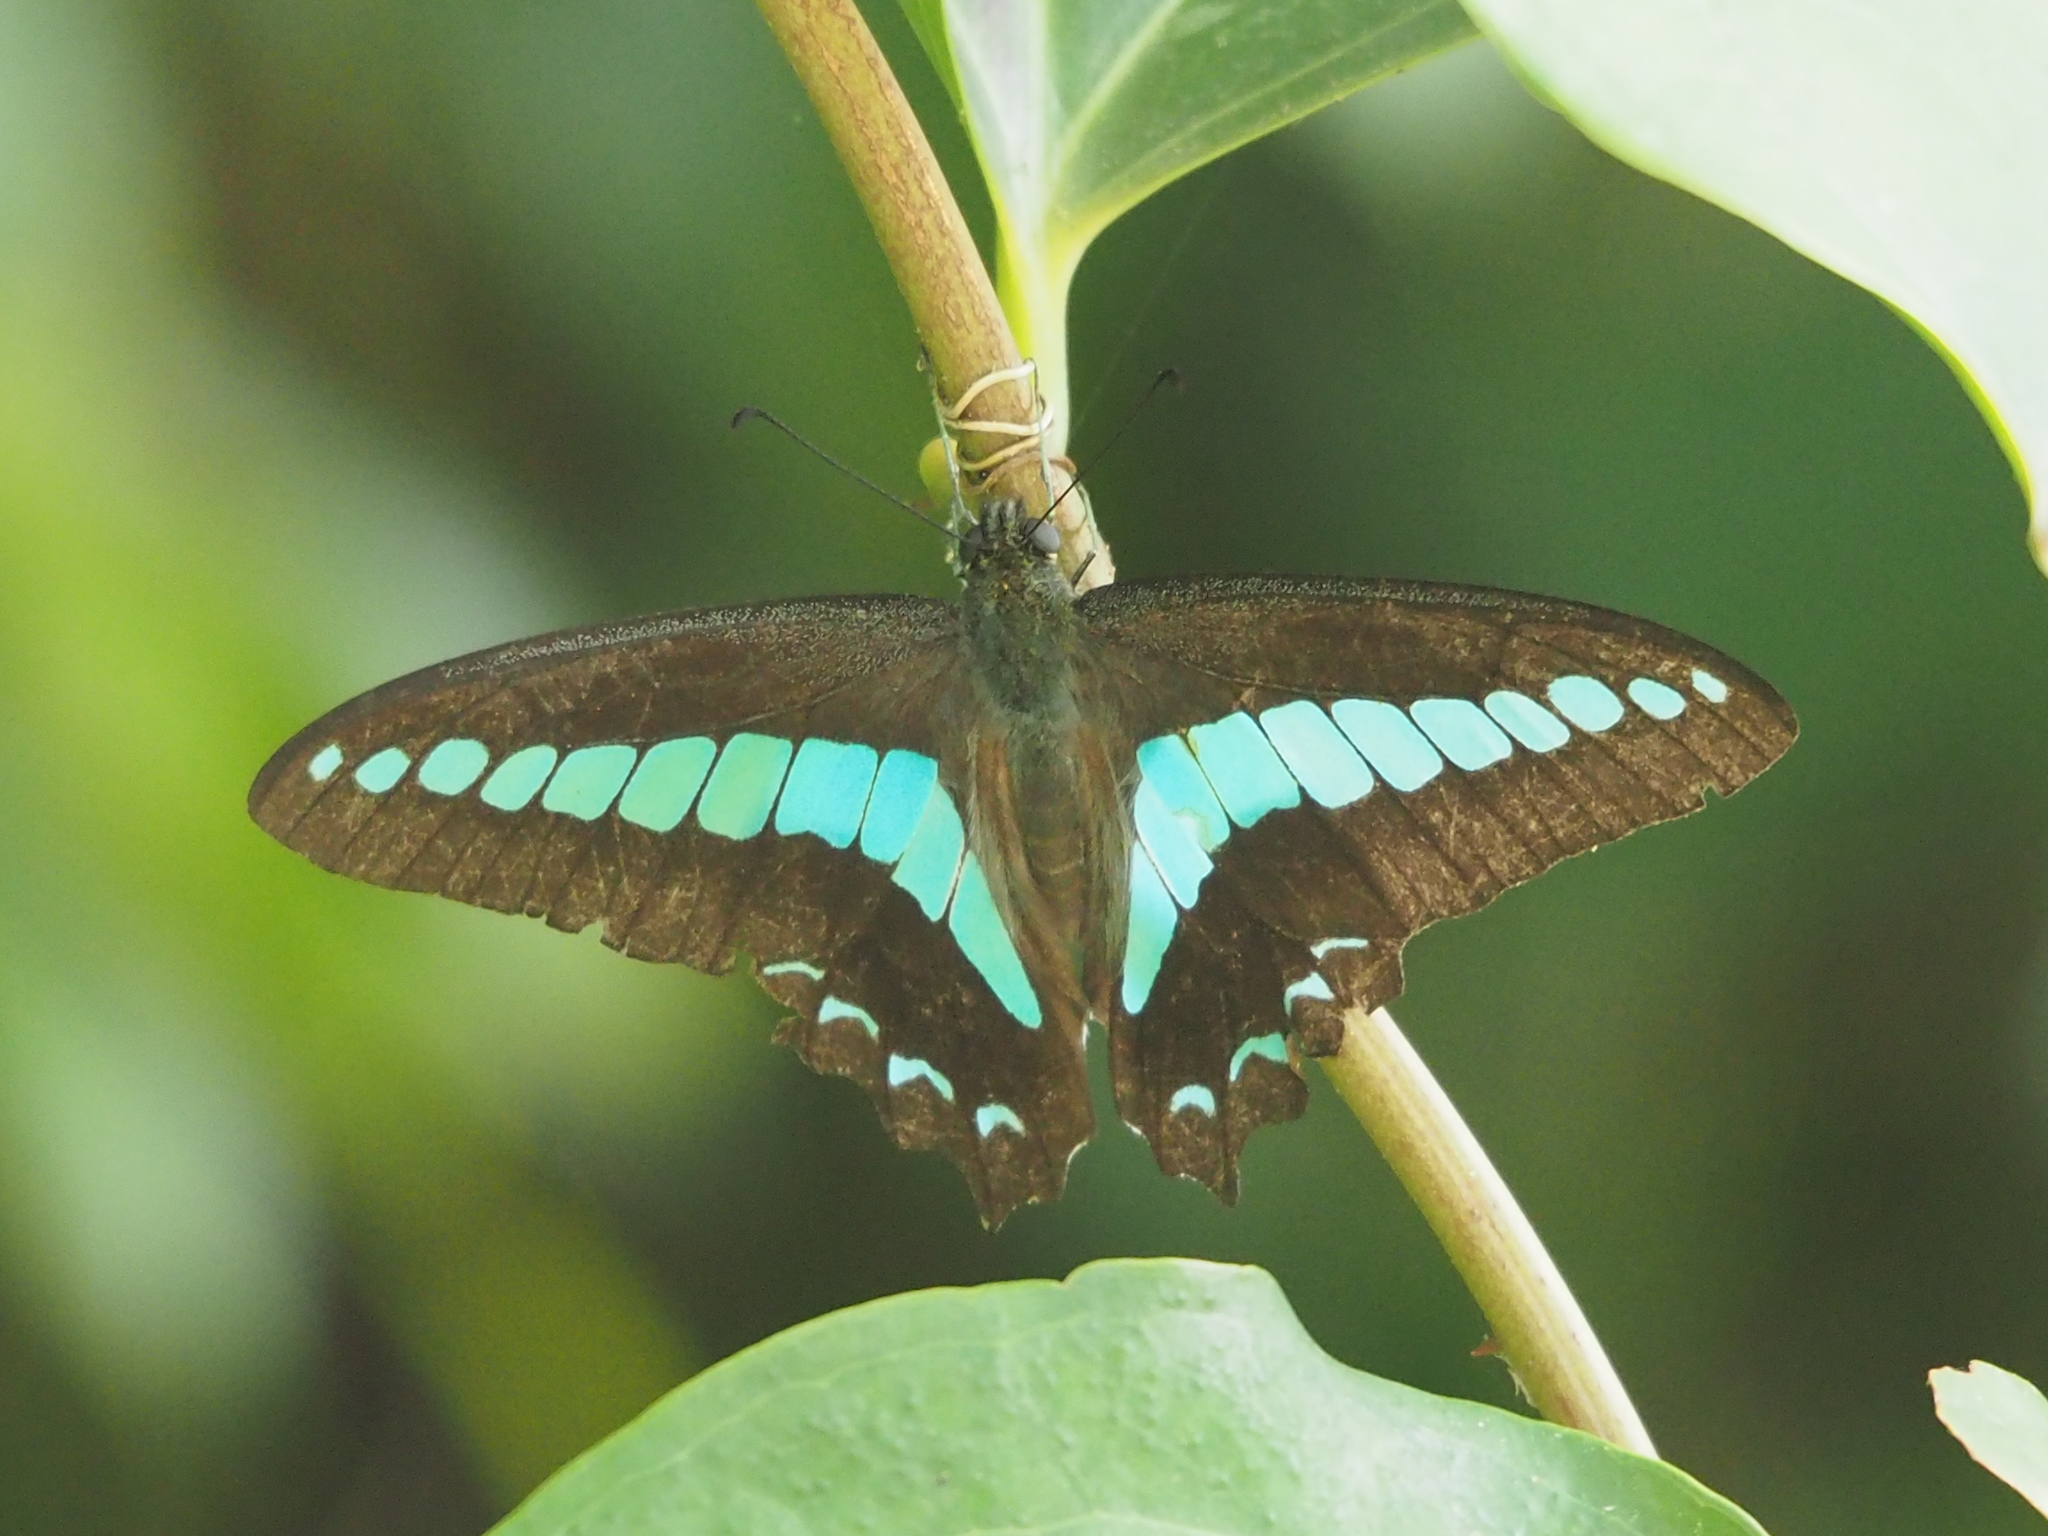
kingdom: Fungi
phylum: Ascomycota
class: Sordariomycetes
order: Microascales
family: Microascaceae
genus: Graphium
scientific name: Graphium sarpedon
